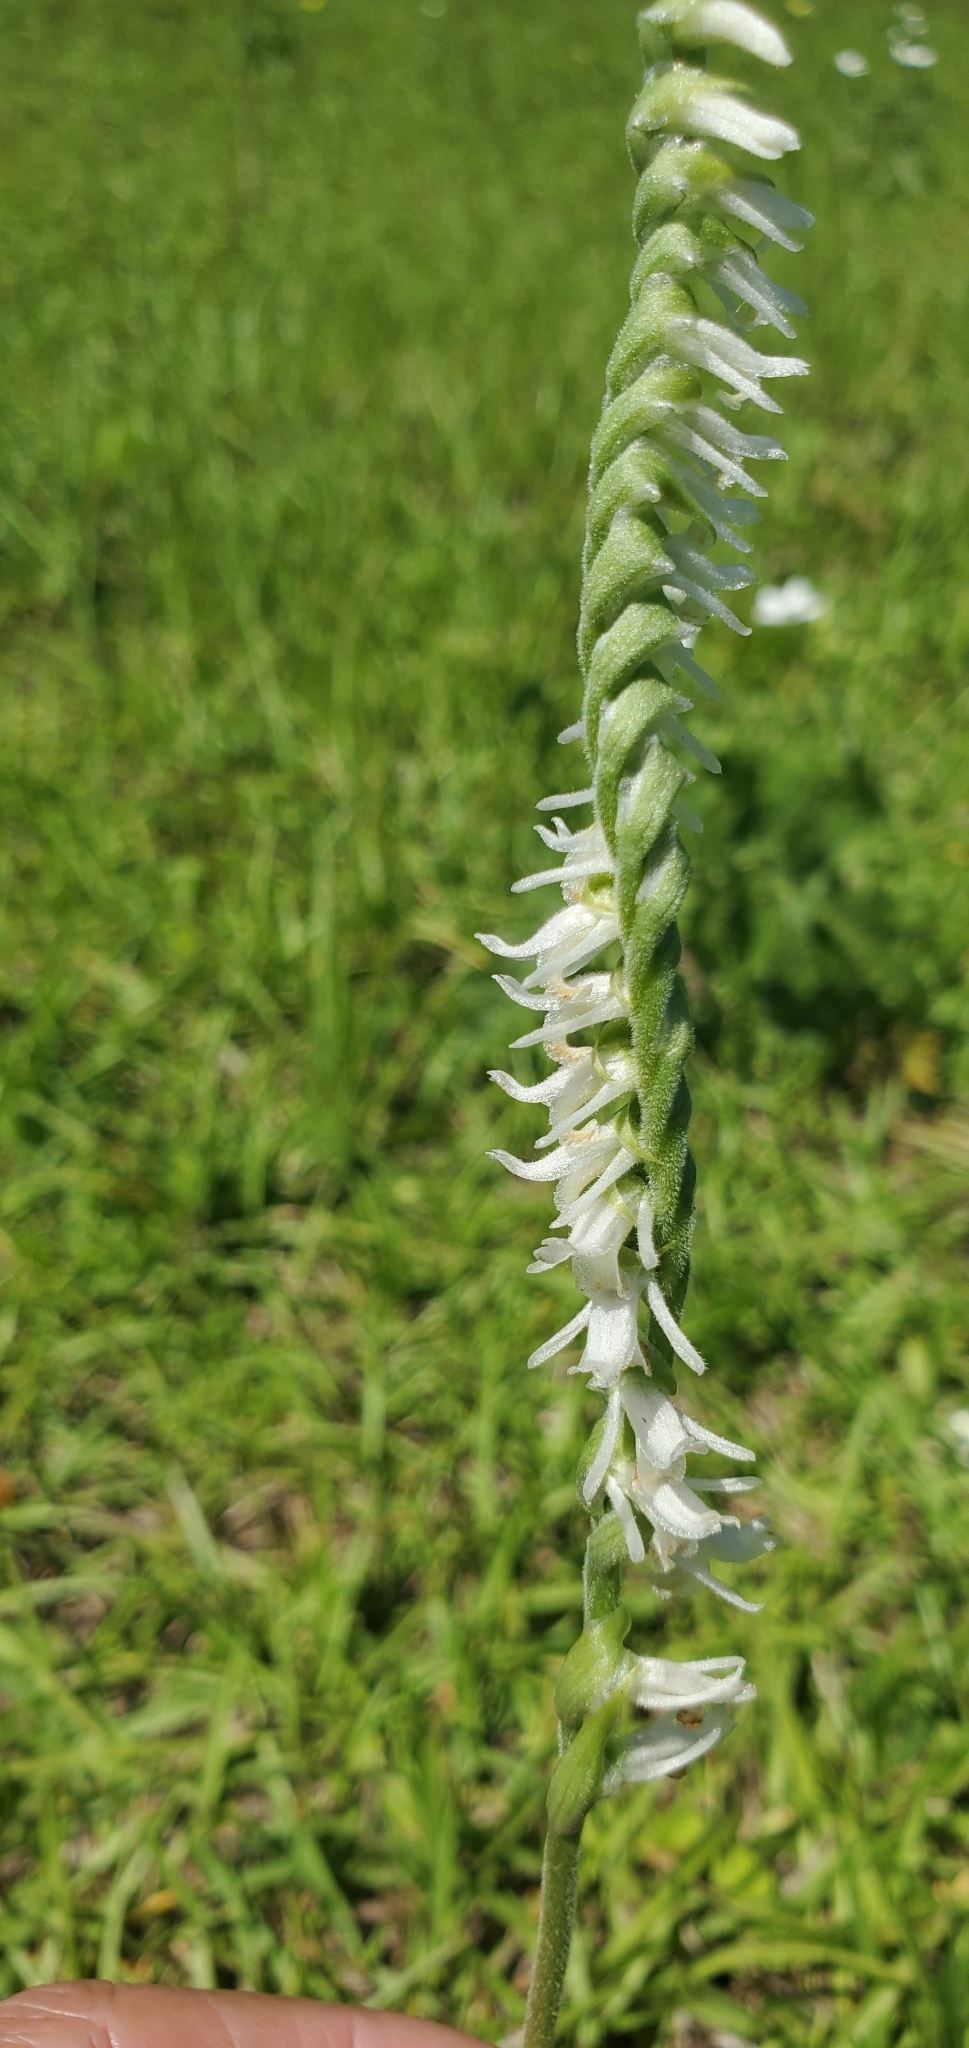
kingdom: Plantae
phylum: Tracheophyta
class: Liliopsida
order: Asparagales
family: Orchidaceae
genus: Spiranthes
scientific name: Spiranthes vernalis
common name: Spring ladies'-tresses
